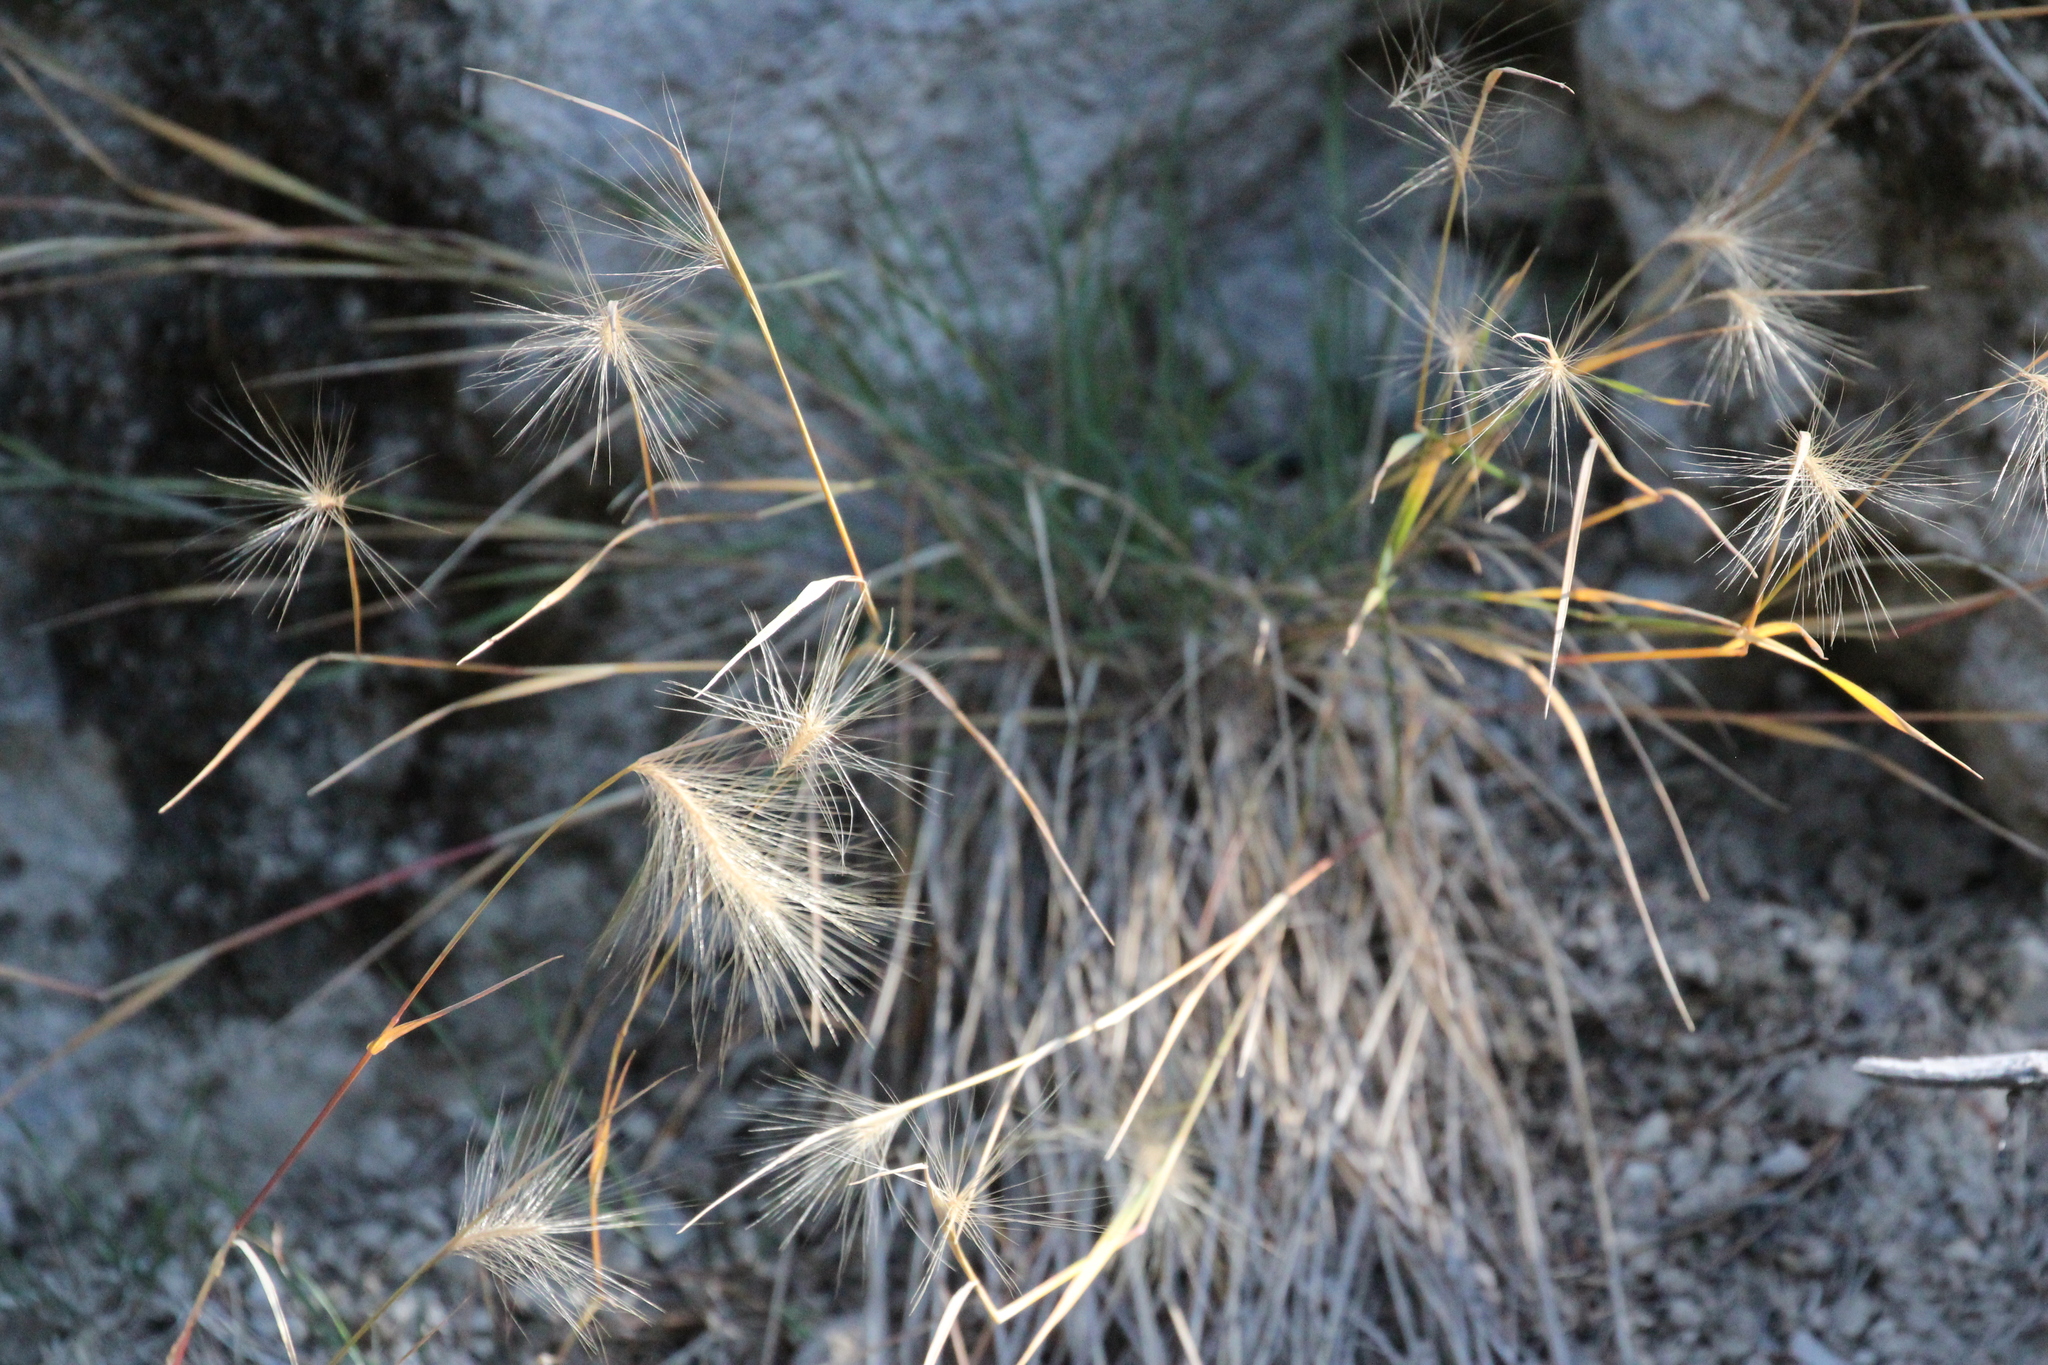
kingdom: Plantae
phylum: Tracheophyta
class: Liliopsida
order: Poales
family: Poaceae
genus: Hordeum
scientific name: Hordeum jubatum
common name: Foxtail barley
